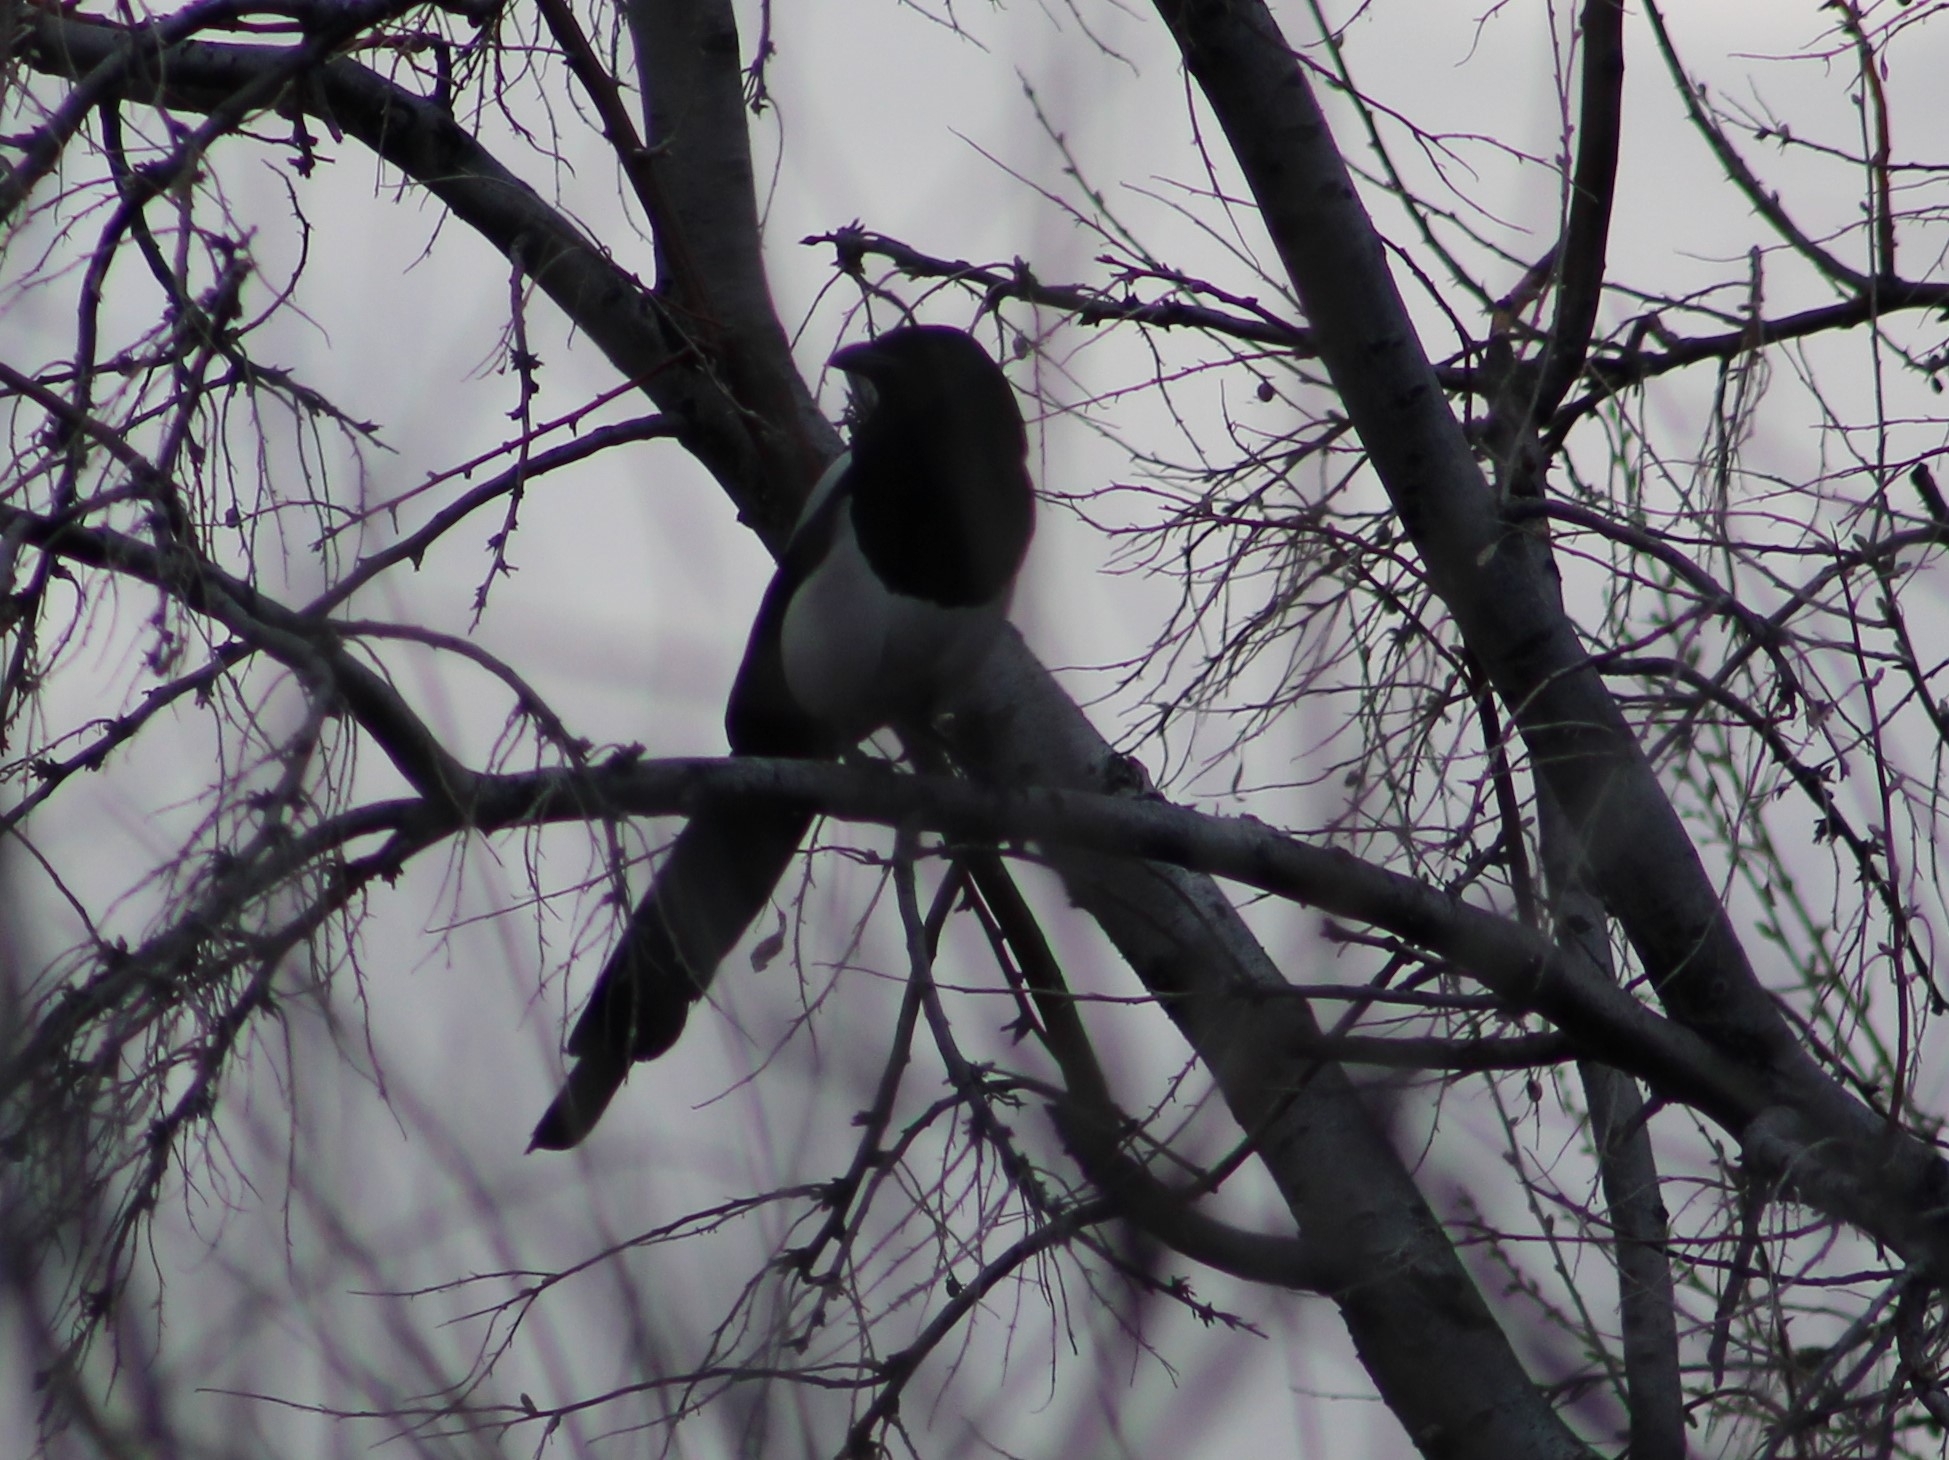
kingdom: Animalia
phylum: Chordata
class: Aves
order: Passeriformes
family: Corvidae
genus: Pica
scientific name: Pica hudsonia
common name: Black-billed magpie
